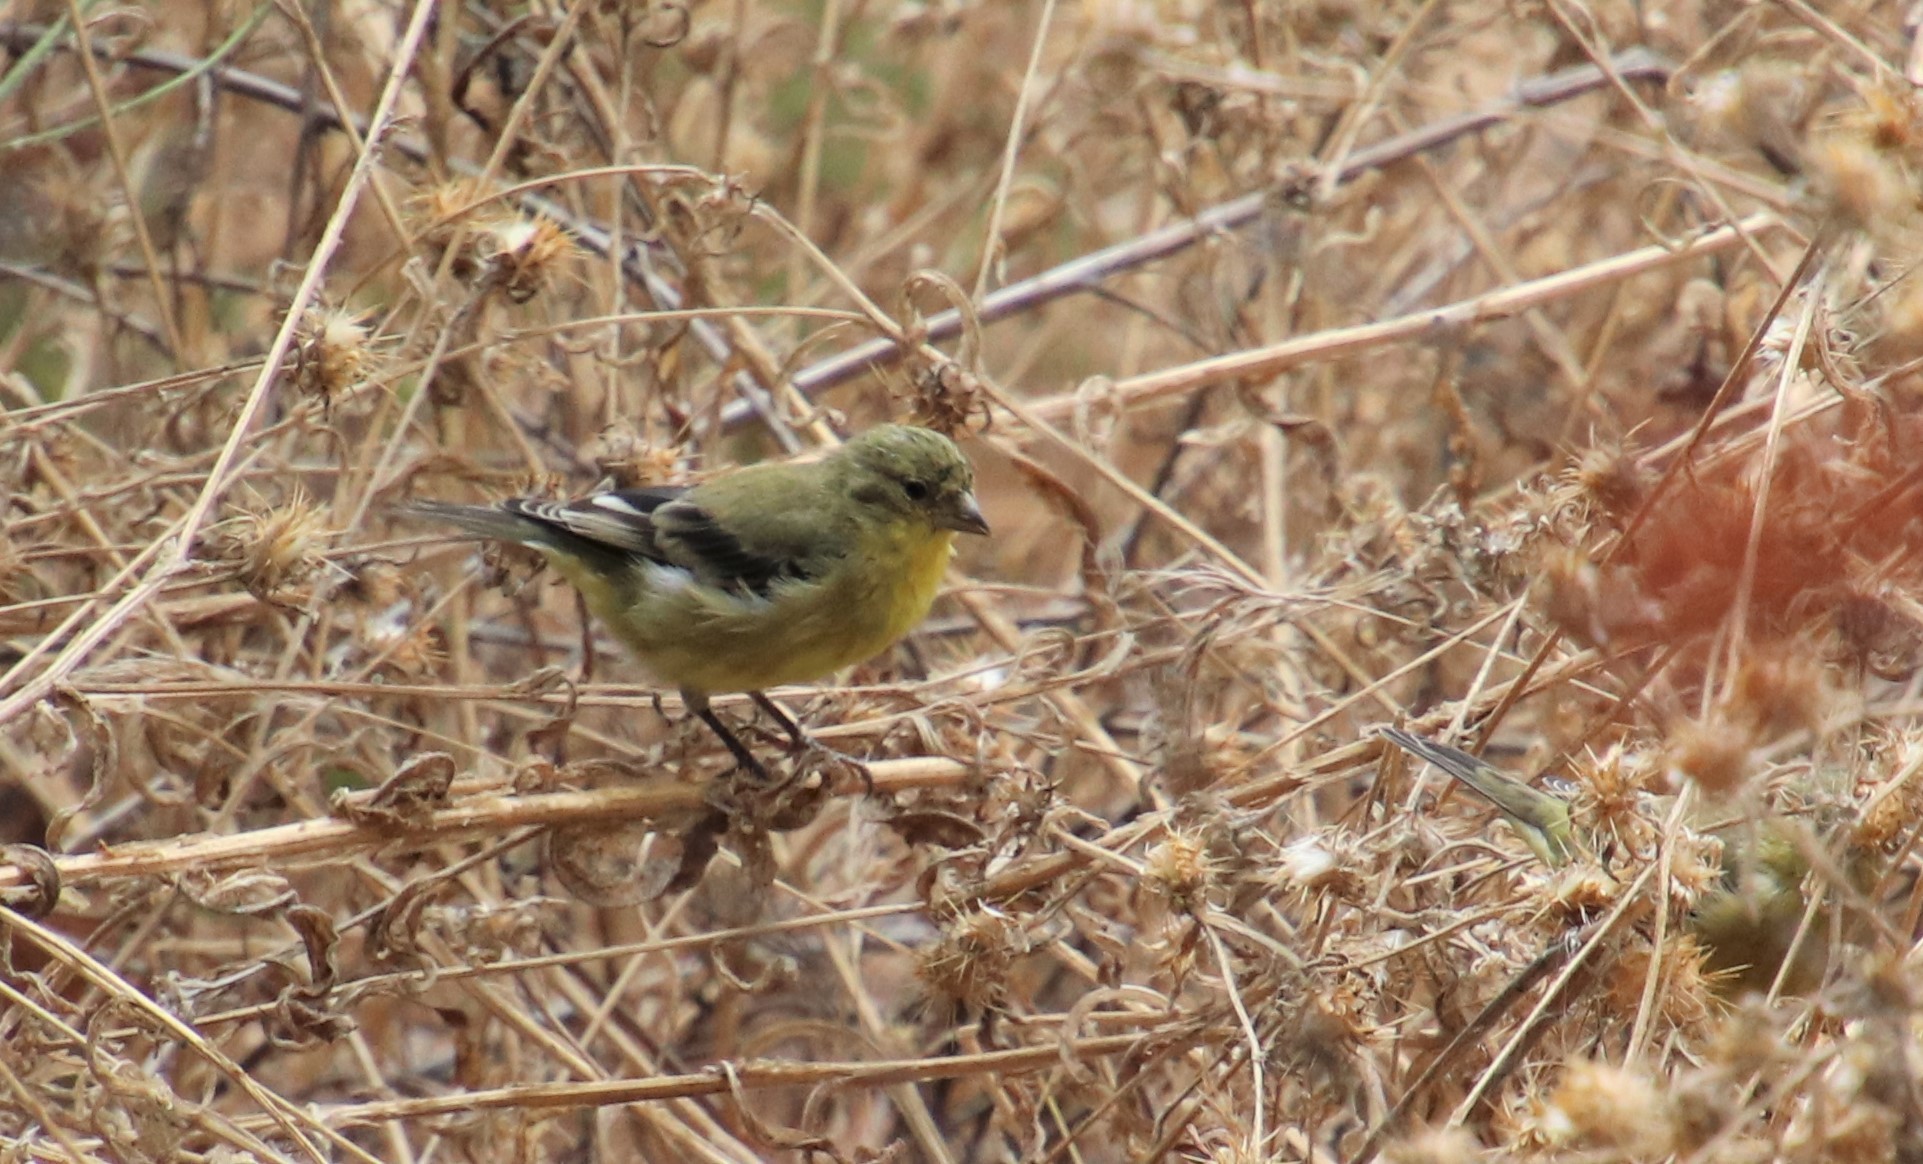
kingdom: Animalia
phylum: Chordata
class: Aves
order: Passeriformes
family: Fringillidae
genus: Spinus
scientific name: Spinus psaltria
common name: Lesser goldfinch
